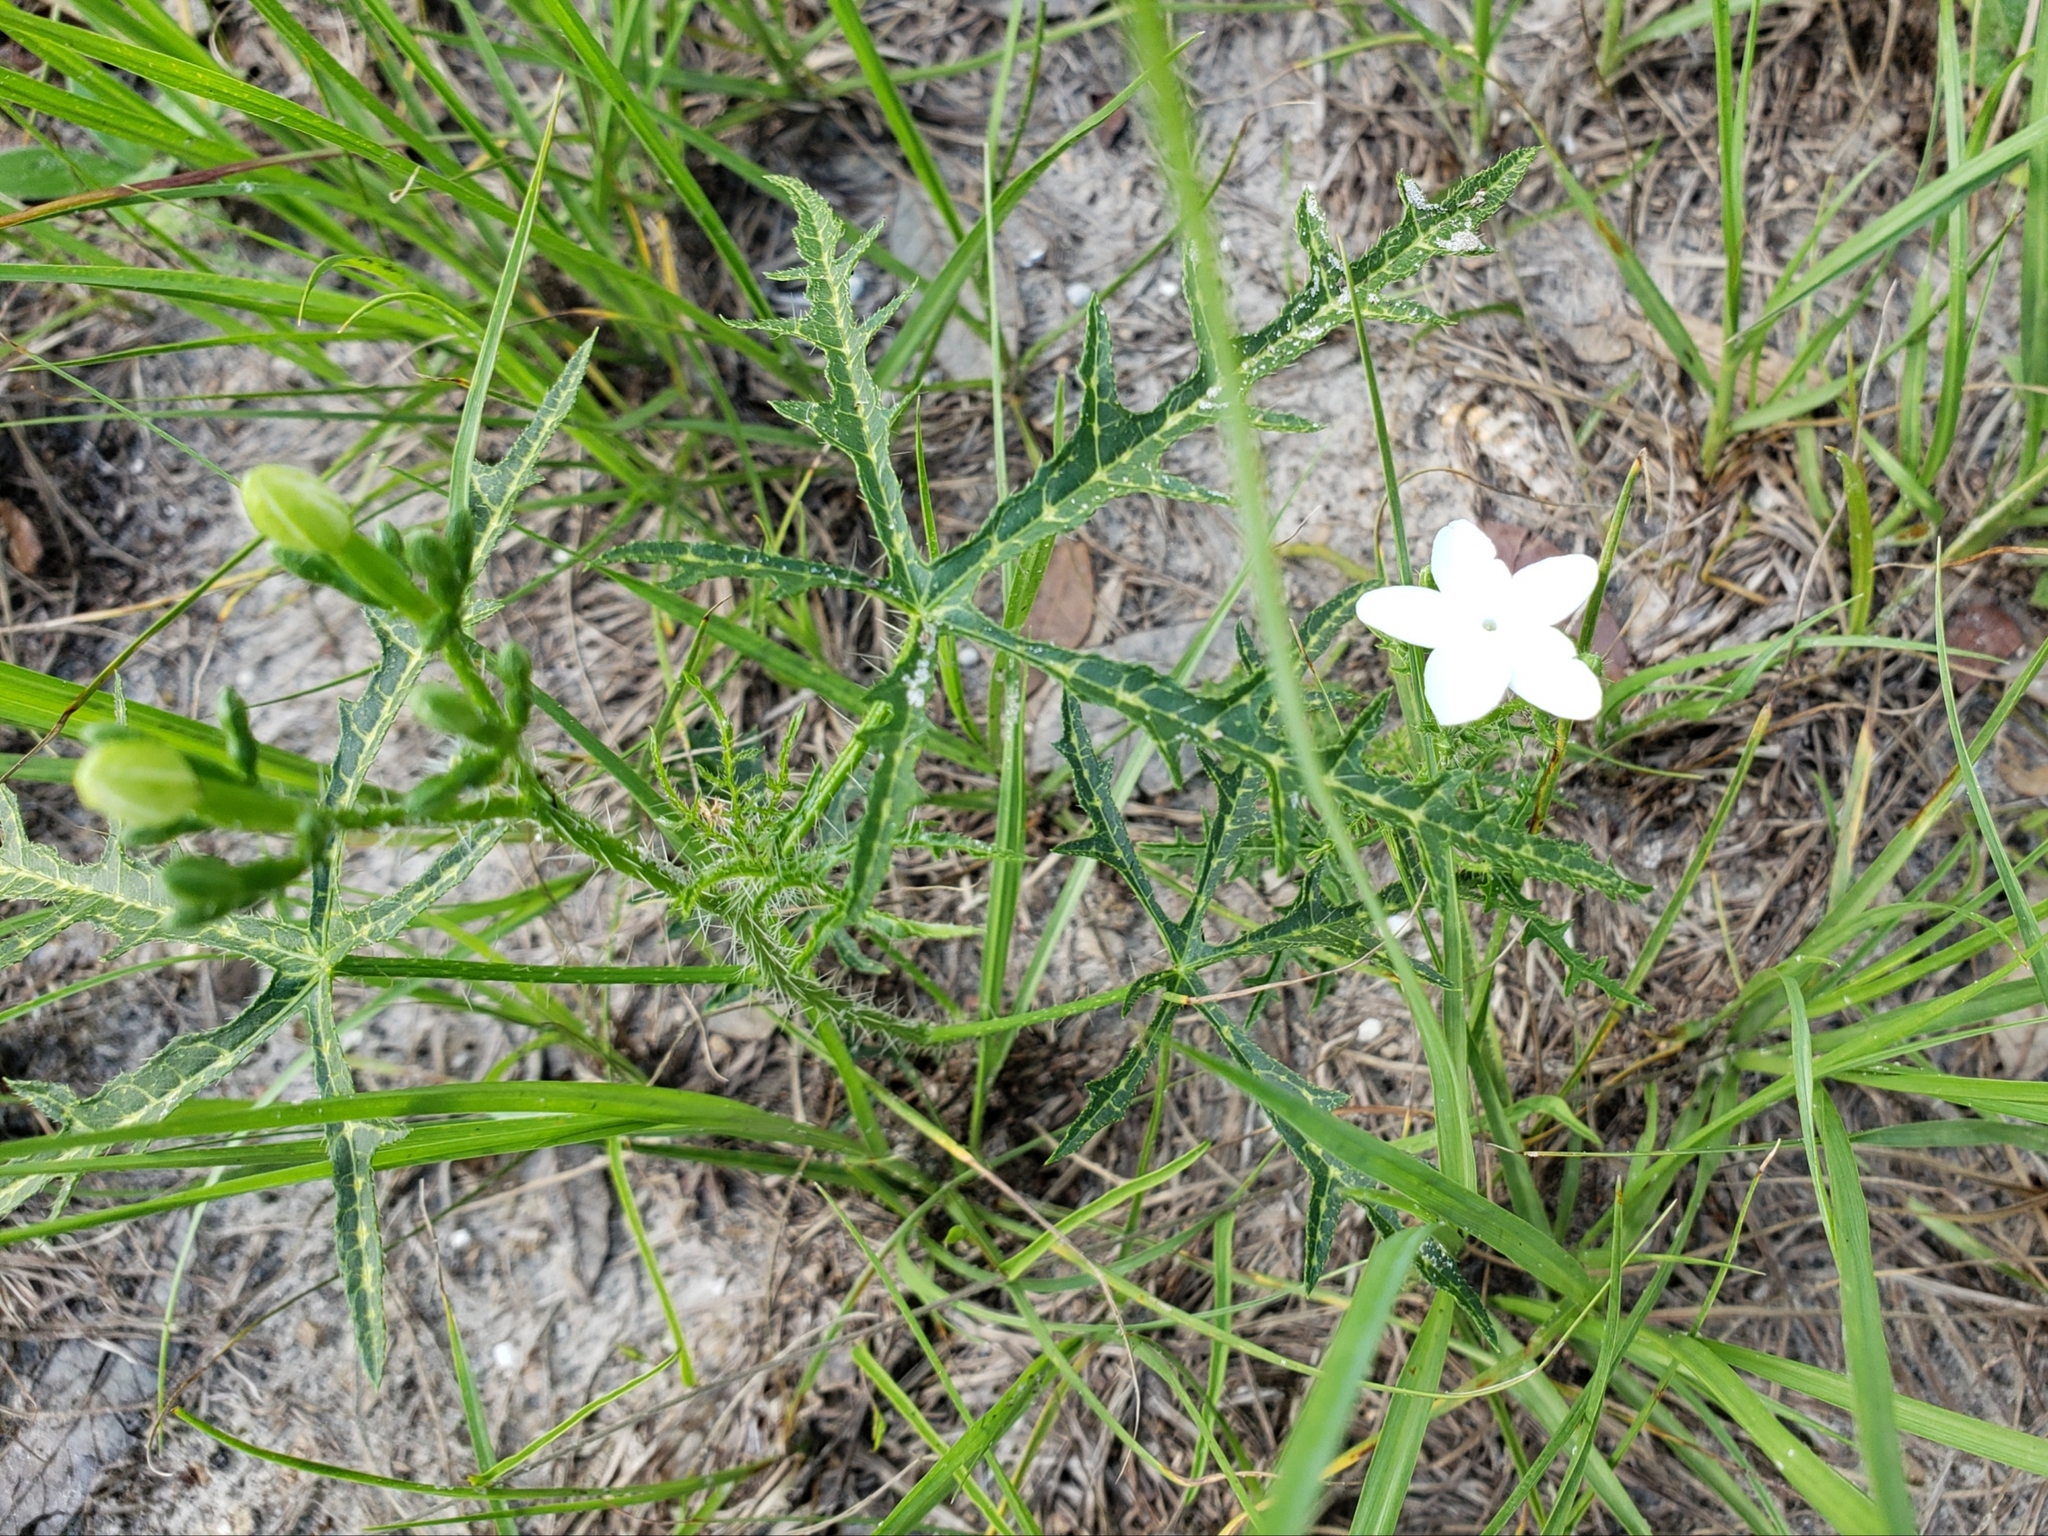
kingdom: Plantae
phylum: Tracheophyta
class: Magnoliopsida
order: Malpighiales
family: Euphorbiaceae
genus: Cnidoscolus
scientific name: Cnidoscolus stimulosus
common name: Bull-nettle
